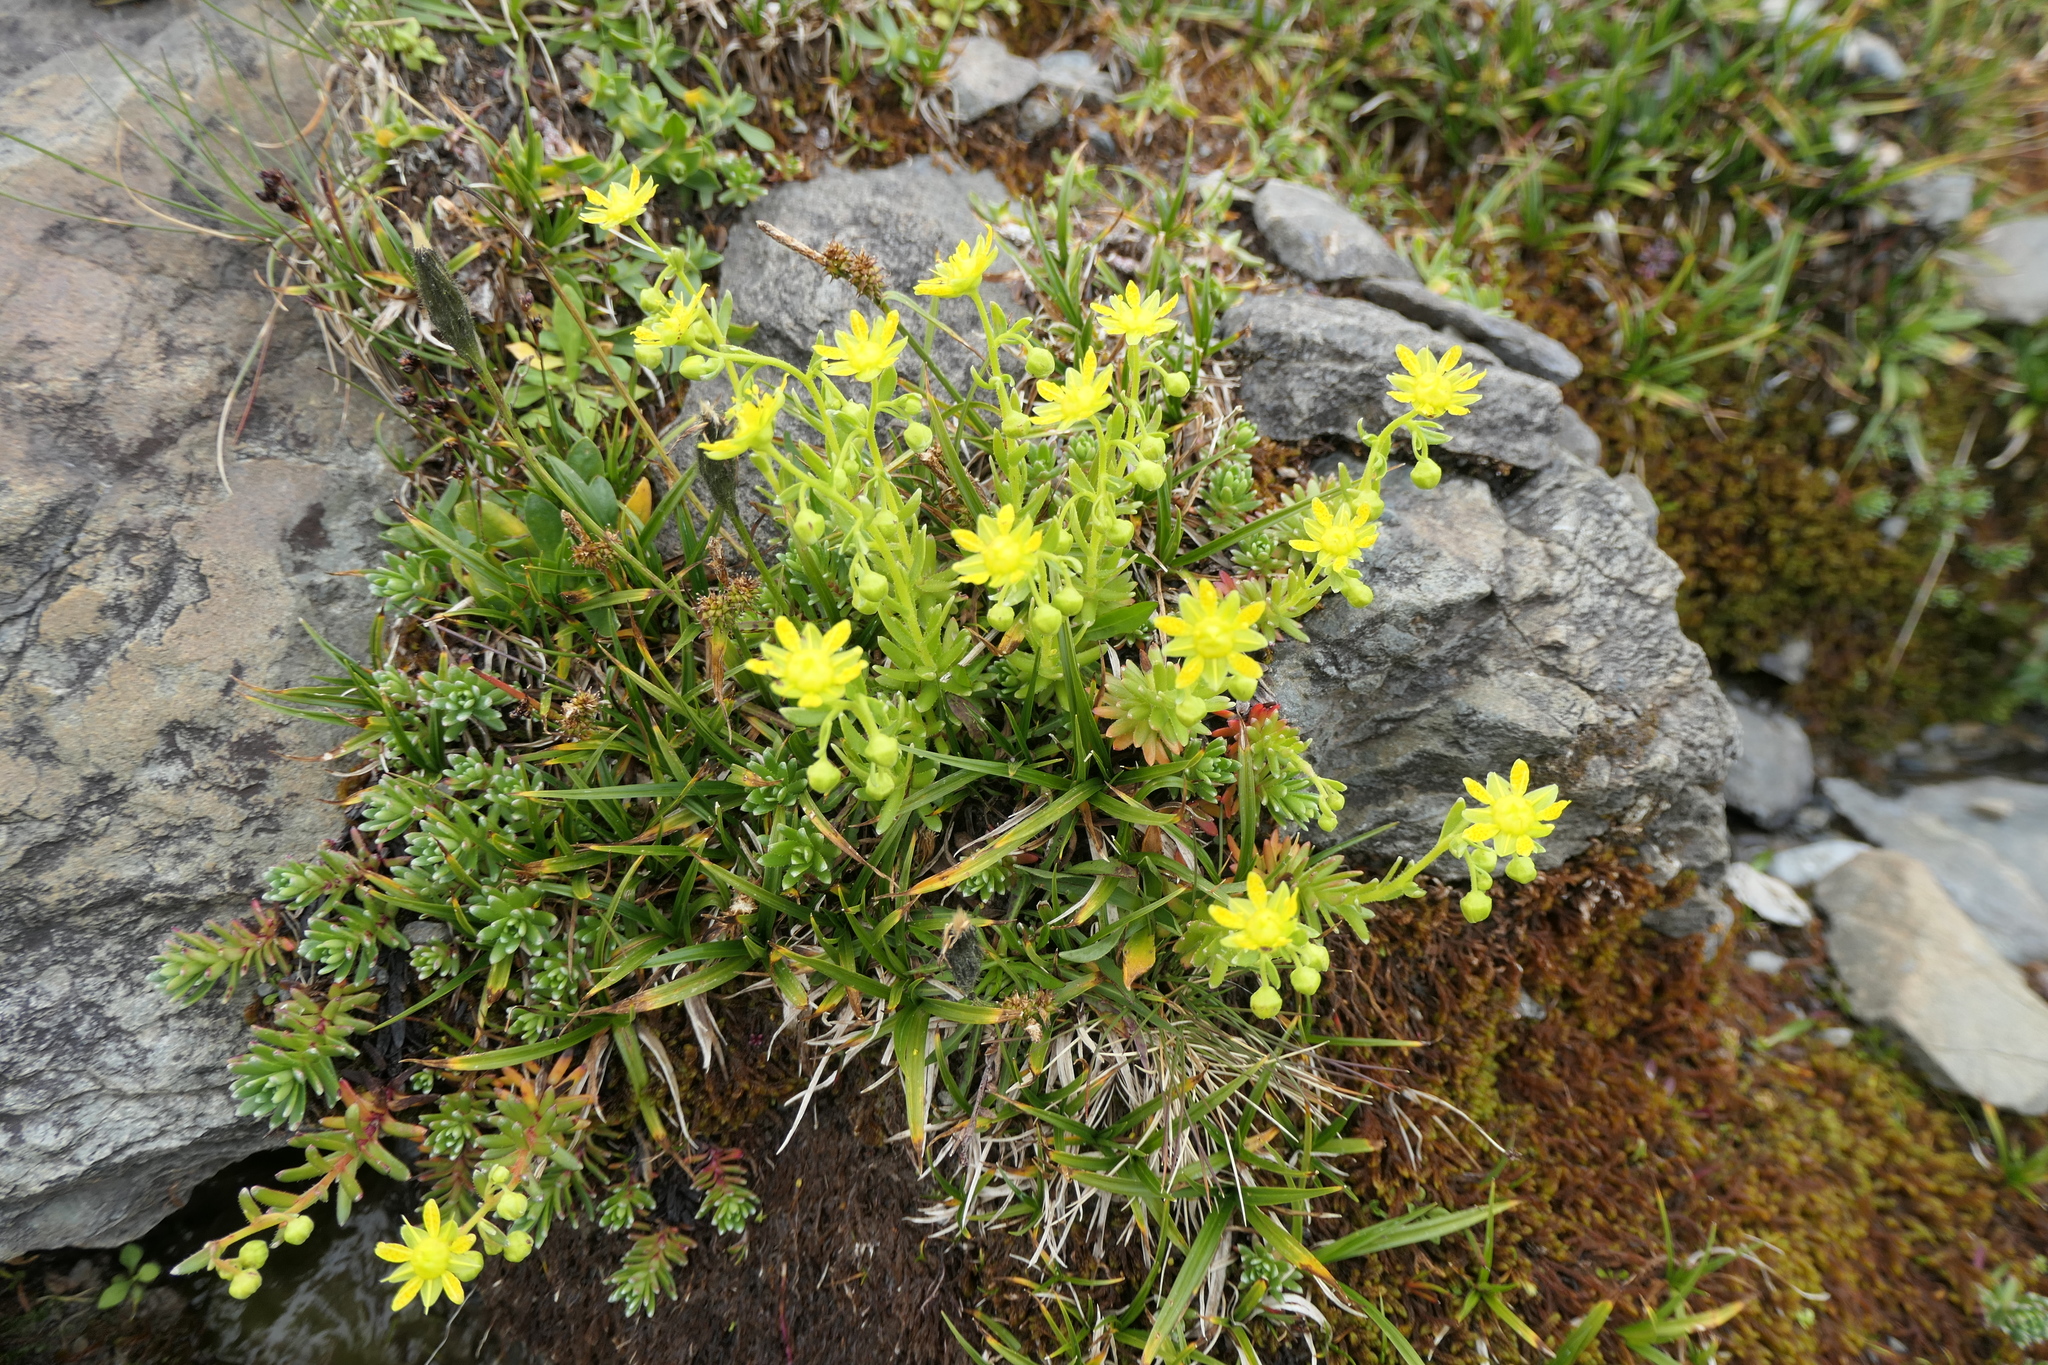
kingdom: Plantae
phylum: Tracheophyta
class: Magnoliopsida
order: Saxifragales
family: Saxifragaceae
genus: Saxifraga
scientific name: Saxifraga aizoides
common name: Yellow mountain saxifrage
